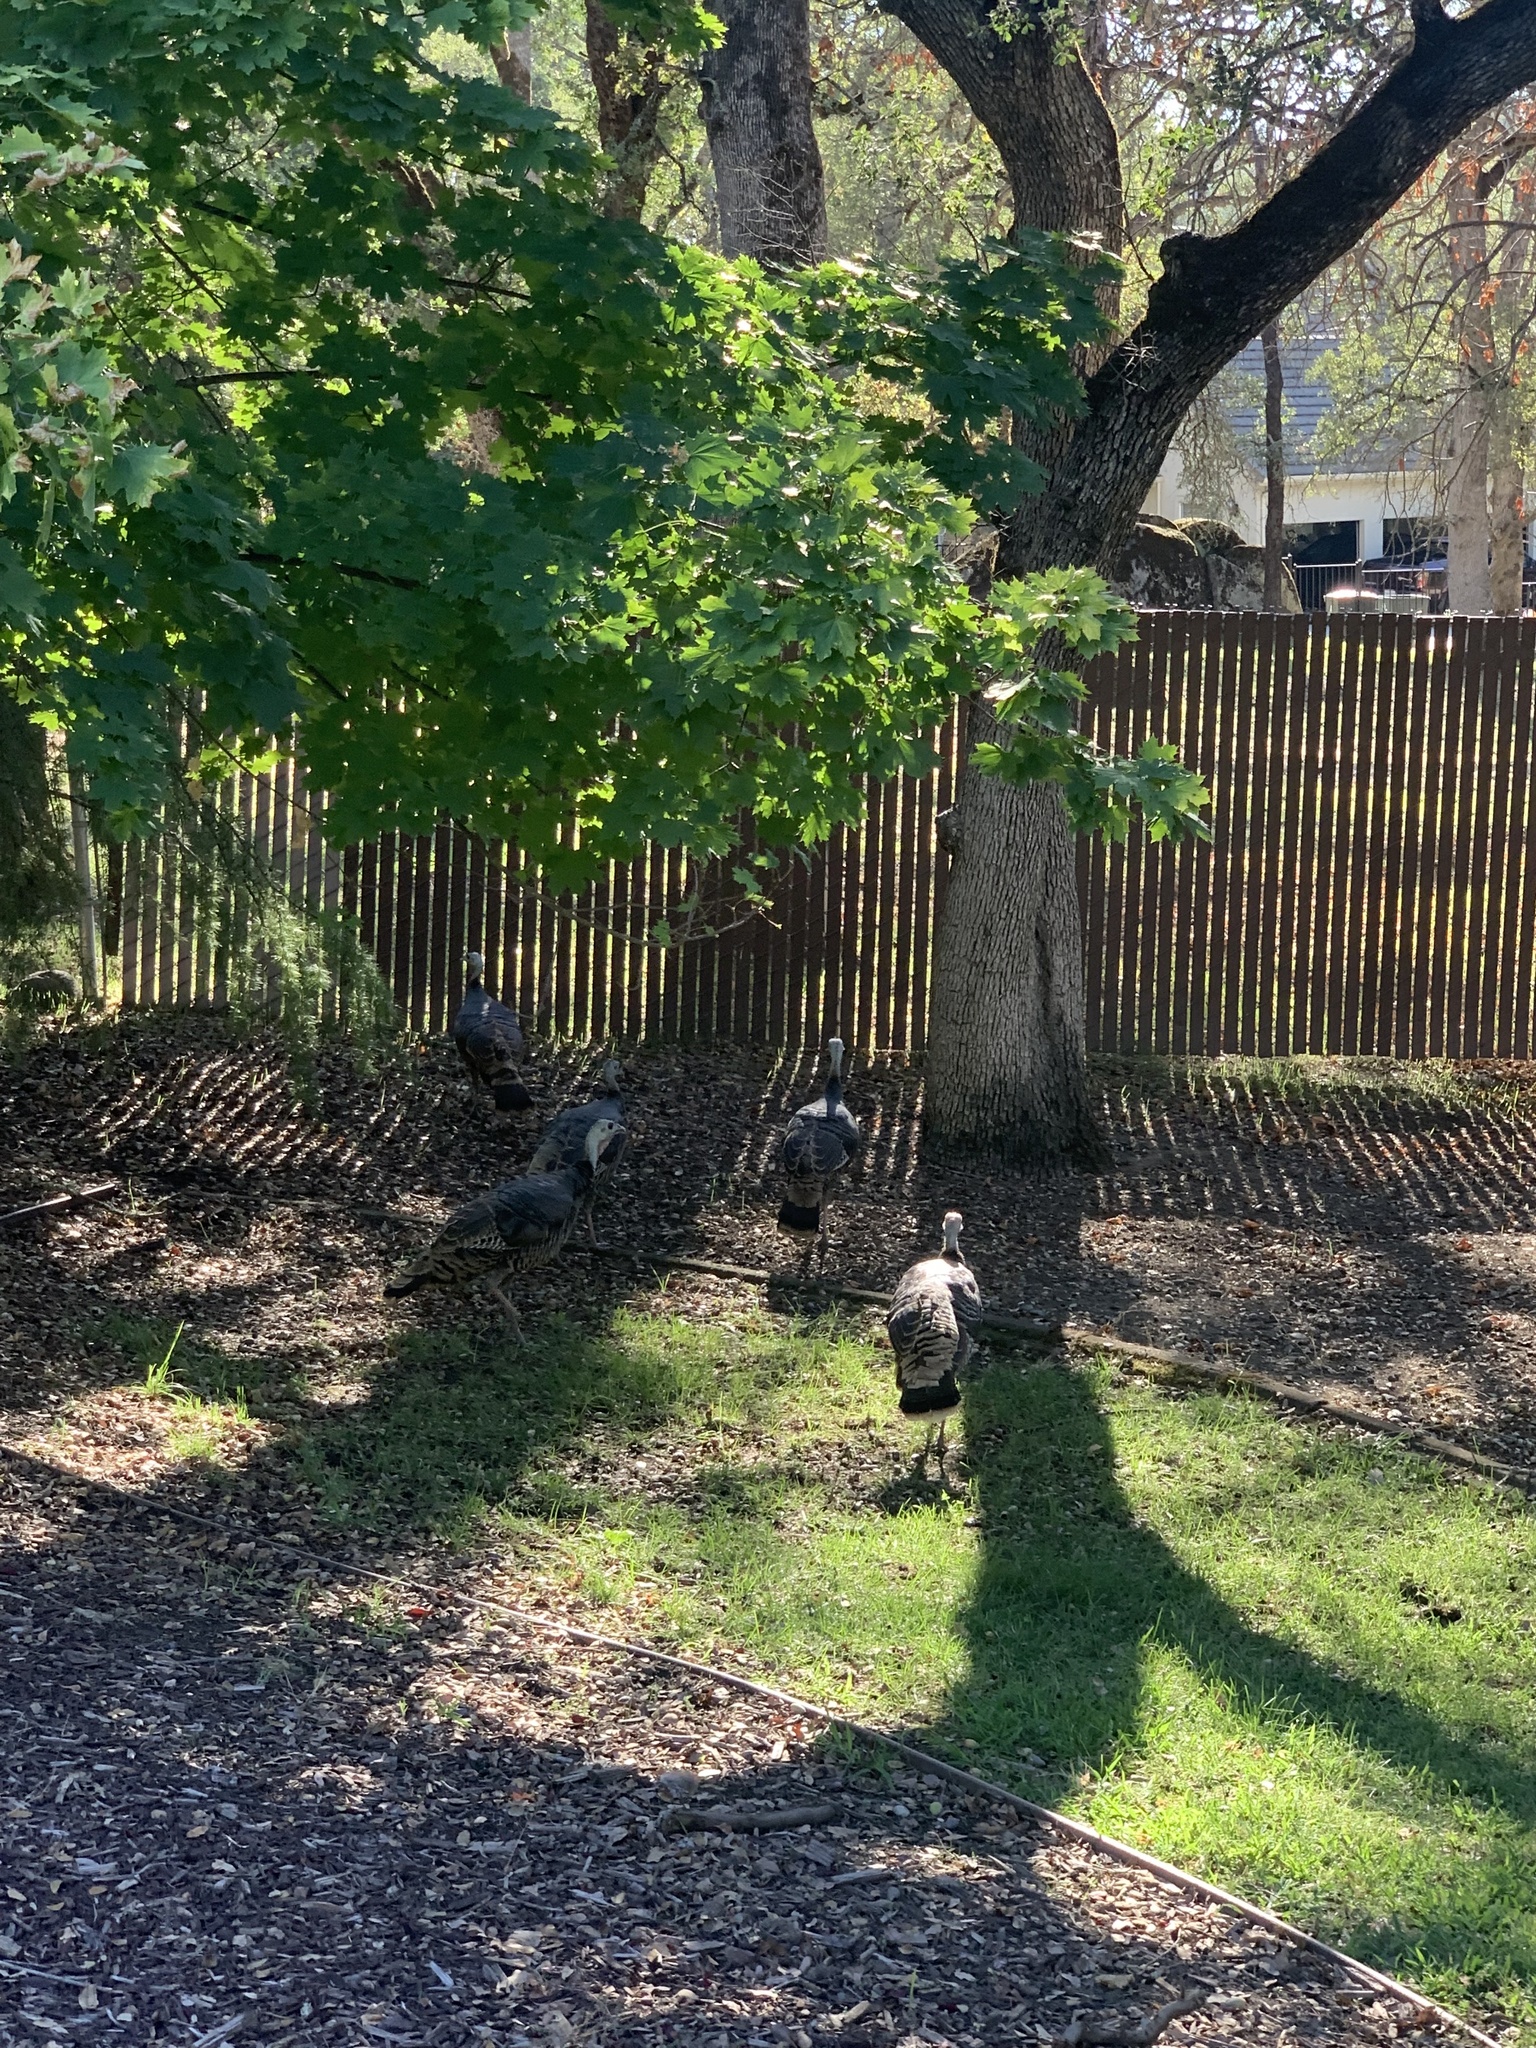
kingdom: Animalia
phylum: Chordata
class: Aves
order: Galliformes
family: Phasianidae
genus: Meleagris
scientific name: Meleagris gallopavo
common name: Wild turkey
